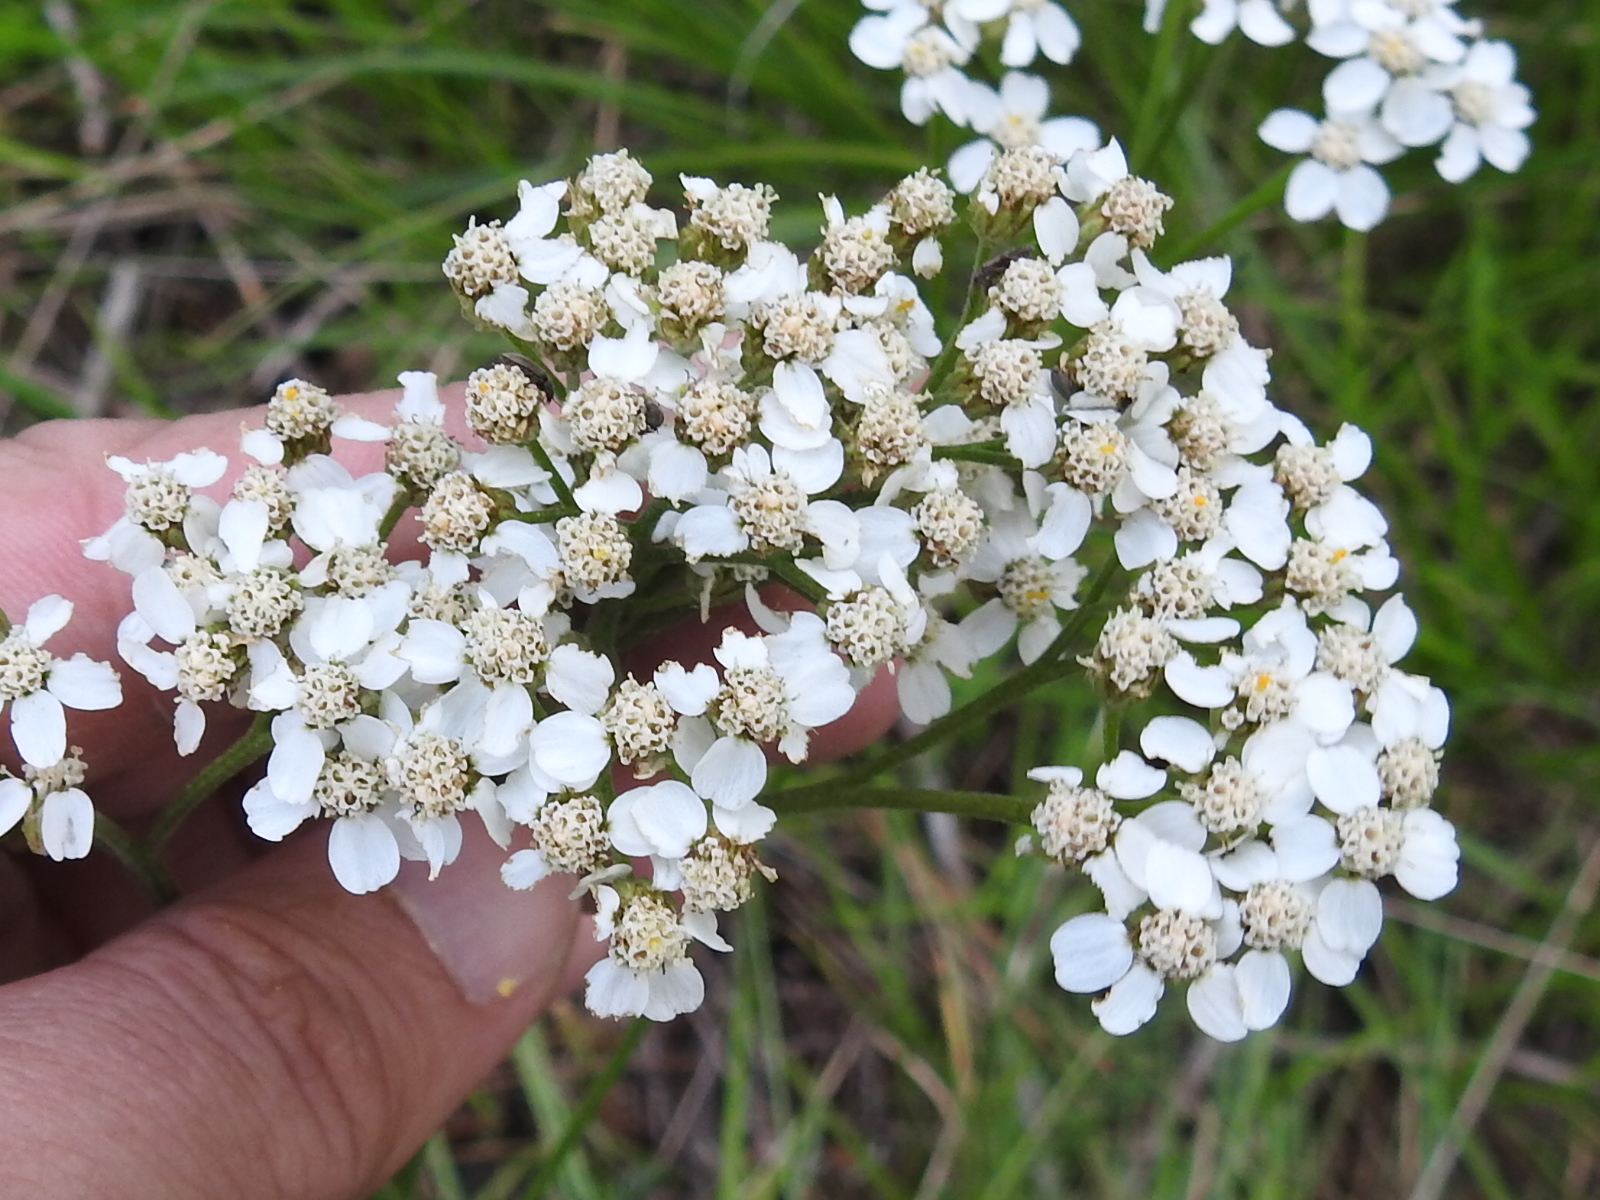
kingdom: Plantae
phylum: Tracheophyta
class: Magnoliopsida
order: Asterales
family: Asteraceae
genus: Achillea
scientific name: Achillea millefolium
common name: Yarrow
